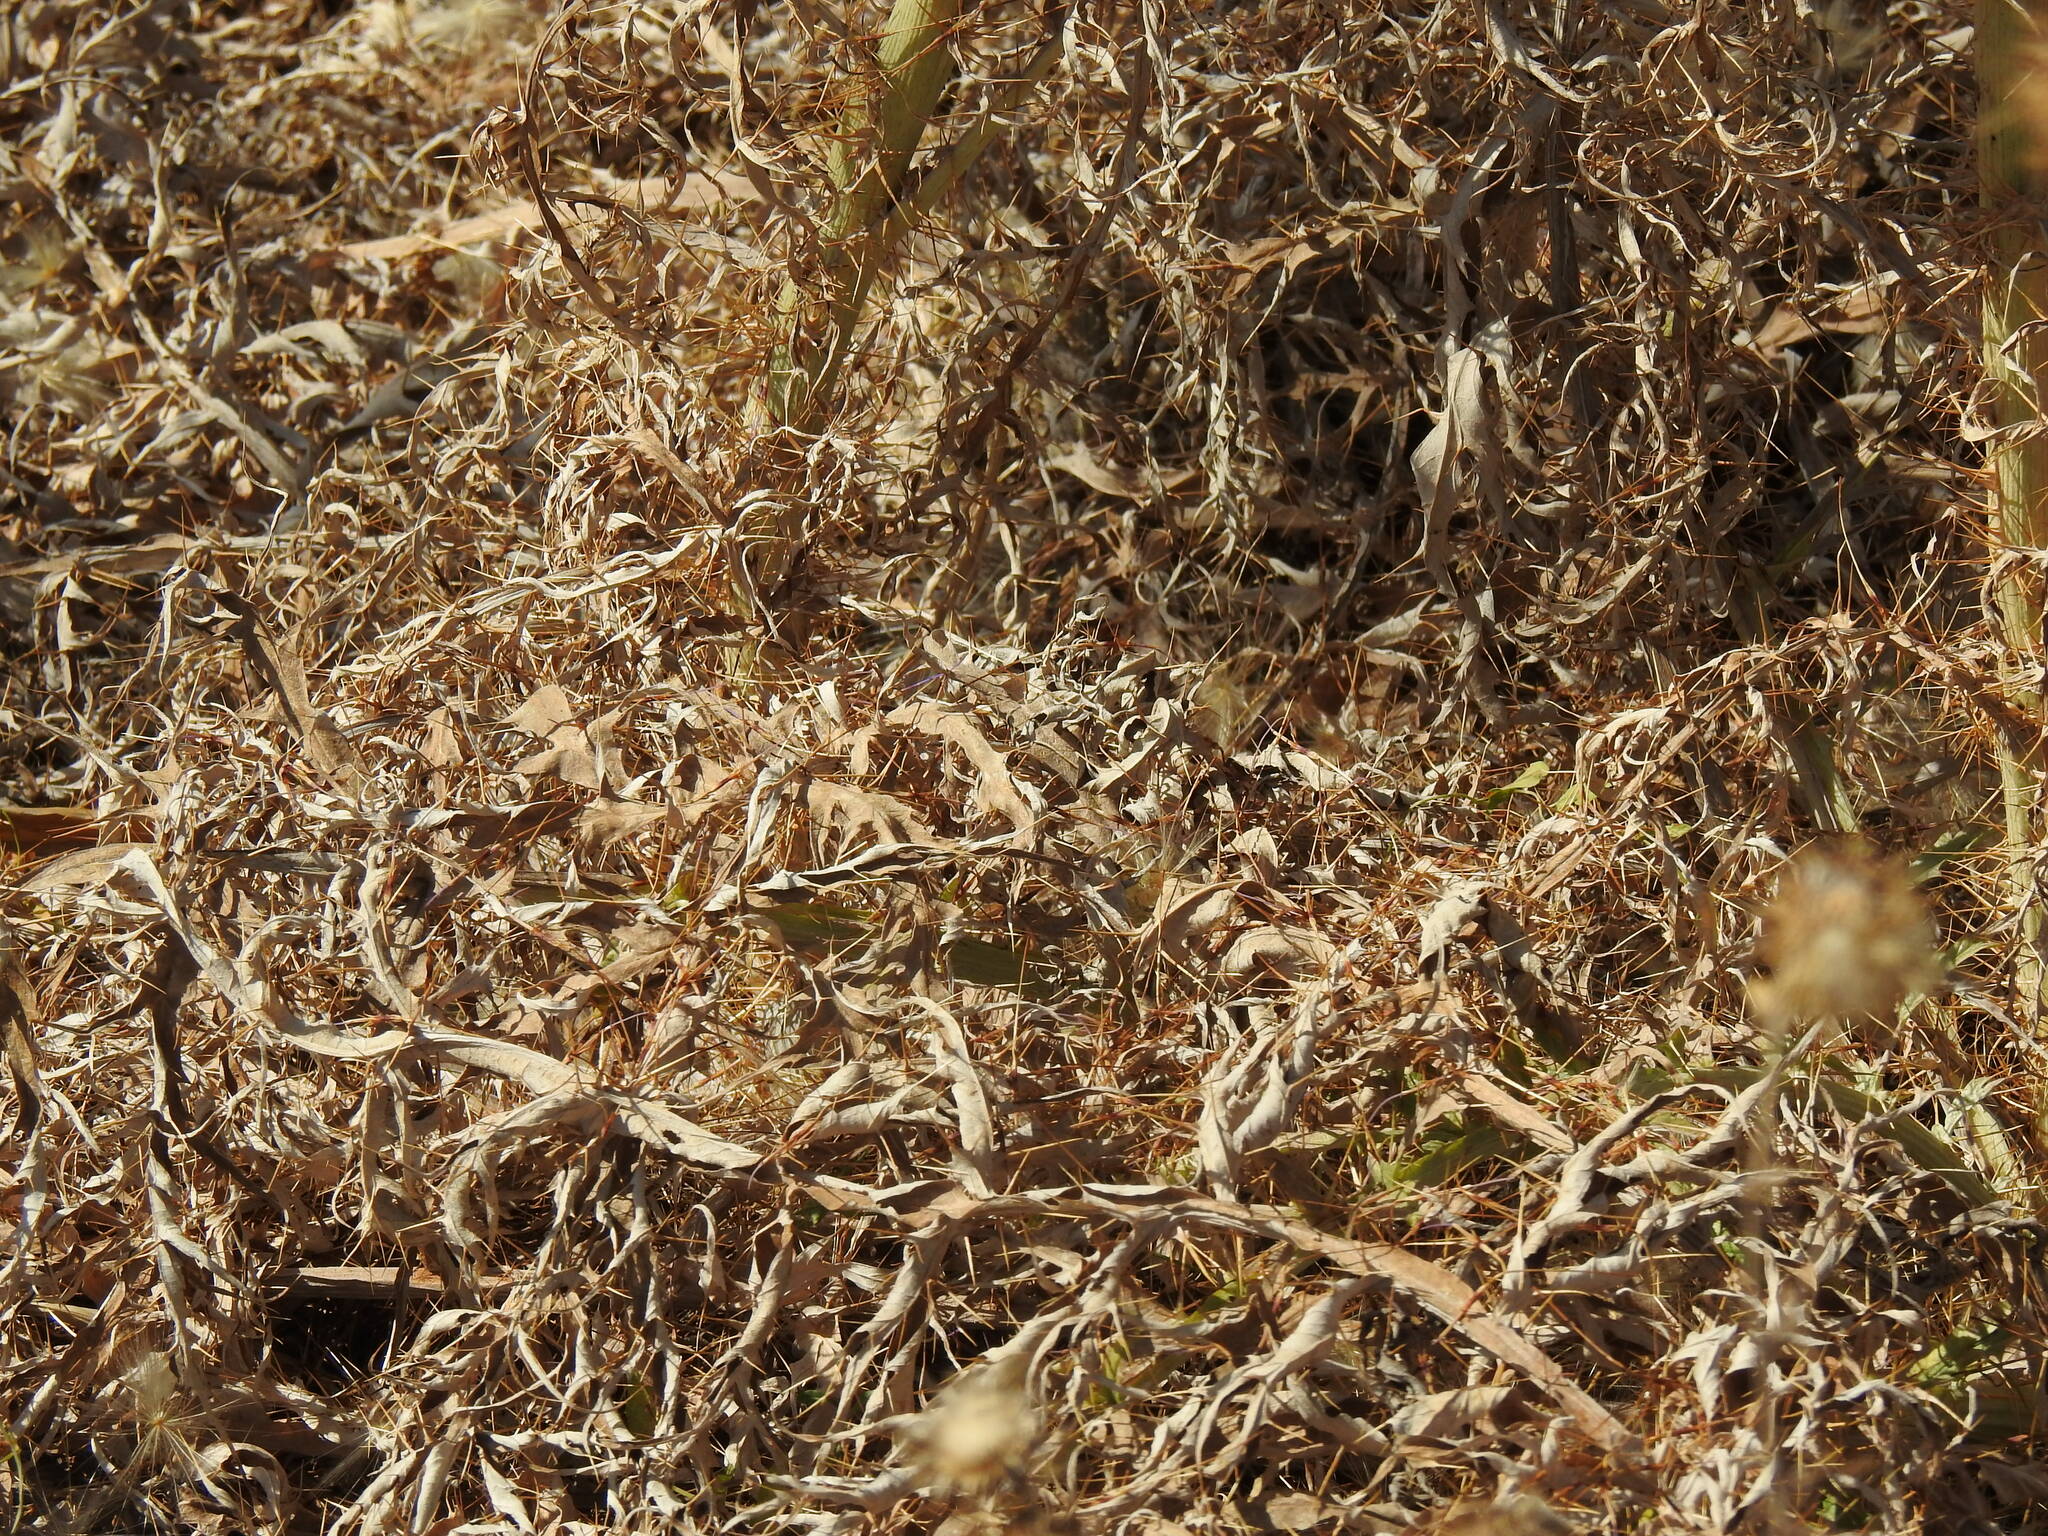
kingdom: Plantae
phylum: Tracheophyta
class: Magnoliopsida
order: Asterales
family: Asteraceae
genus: Cynara
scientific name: Cynara cardunculus
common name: Globe artichoke
